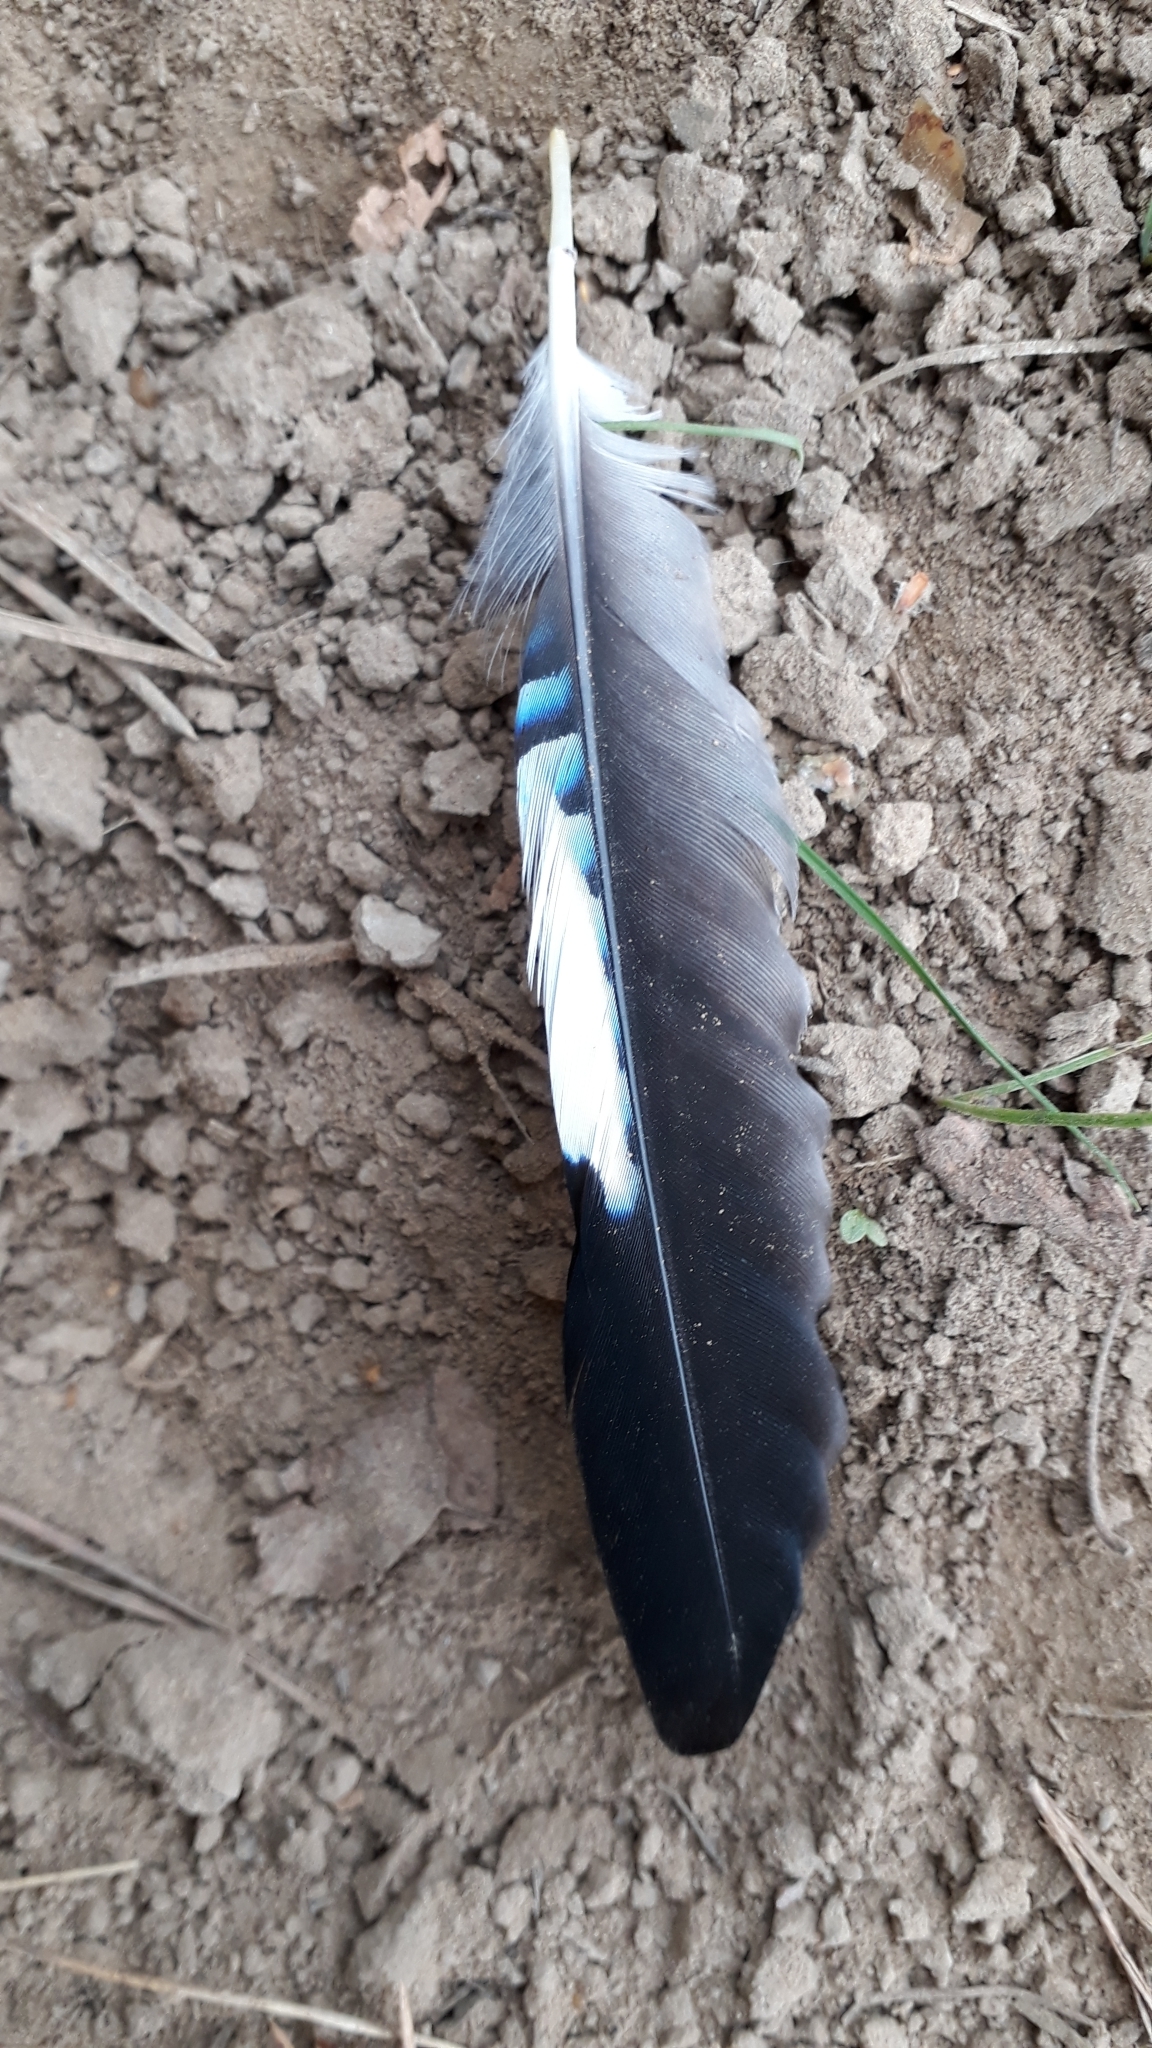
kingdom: Animalia
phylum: Chordata
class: Aves
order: Passeriformes
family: Corvidae
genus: Garrulus
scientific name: Garrulus glandarius
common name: Eurasian jay
